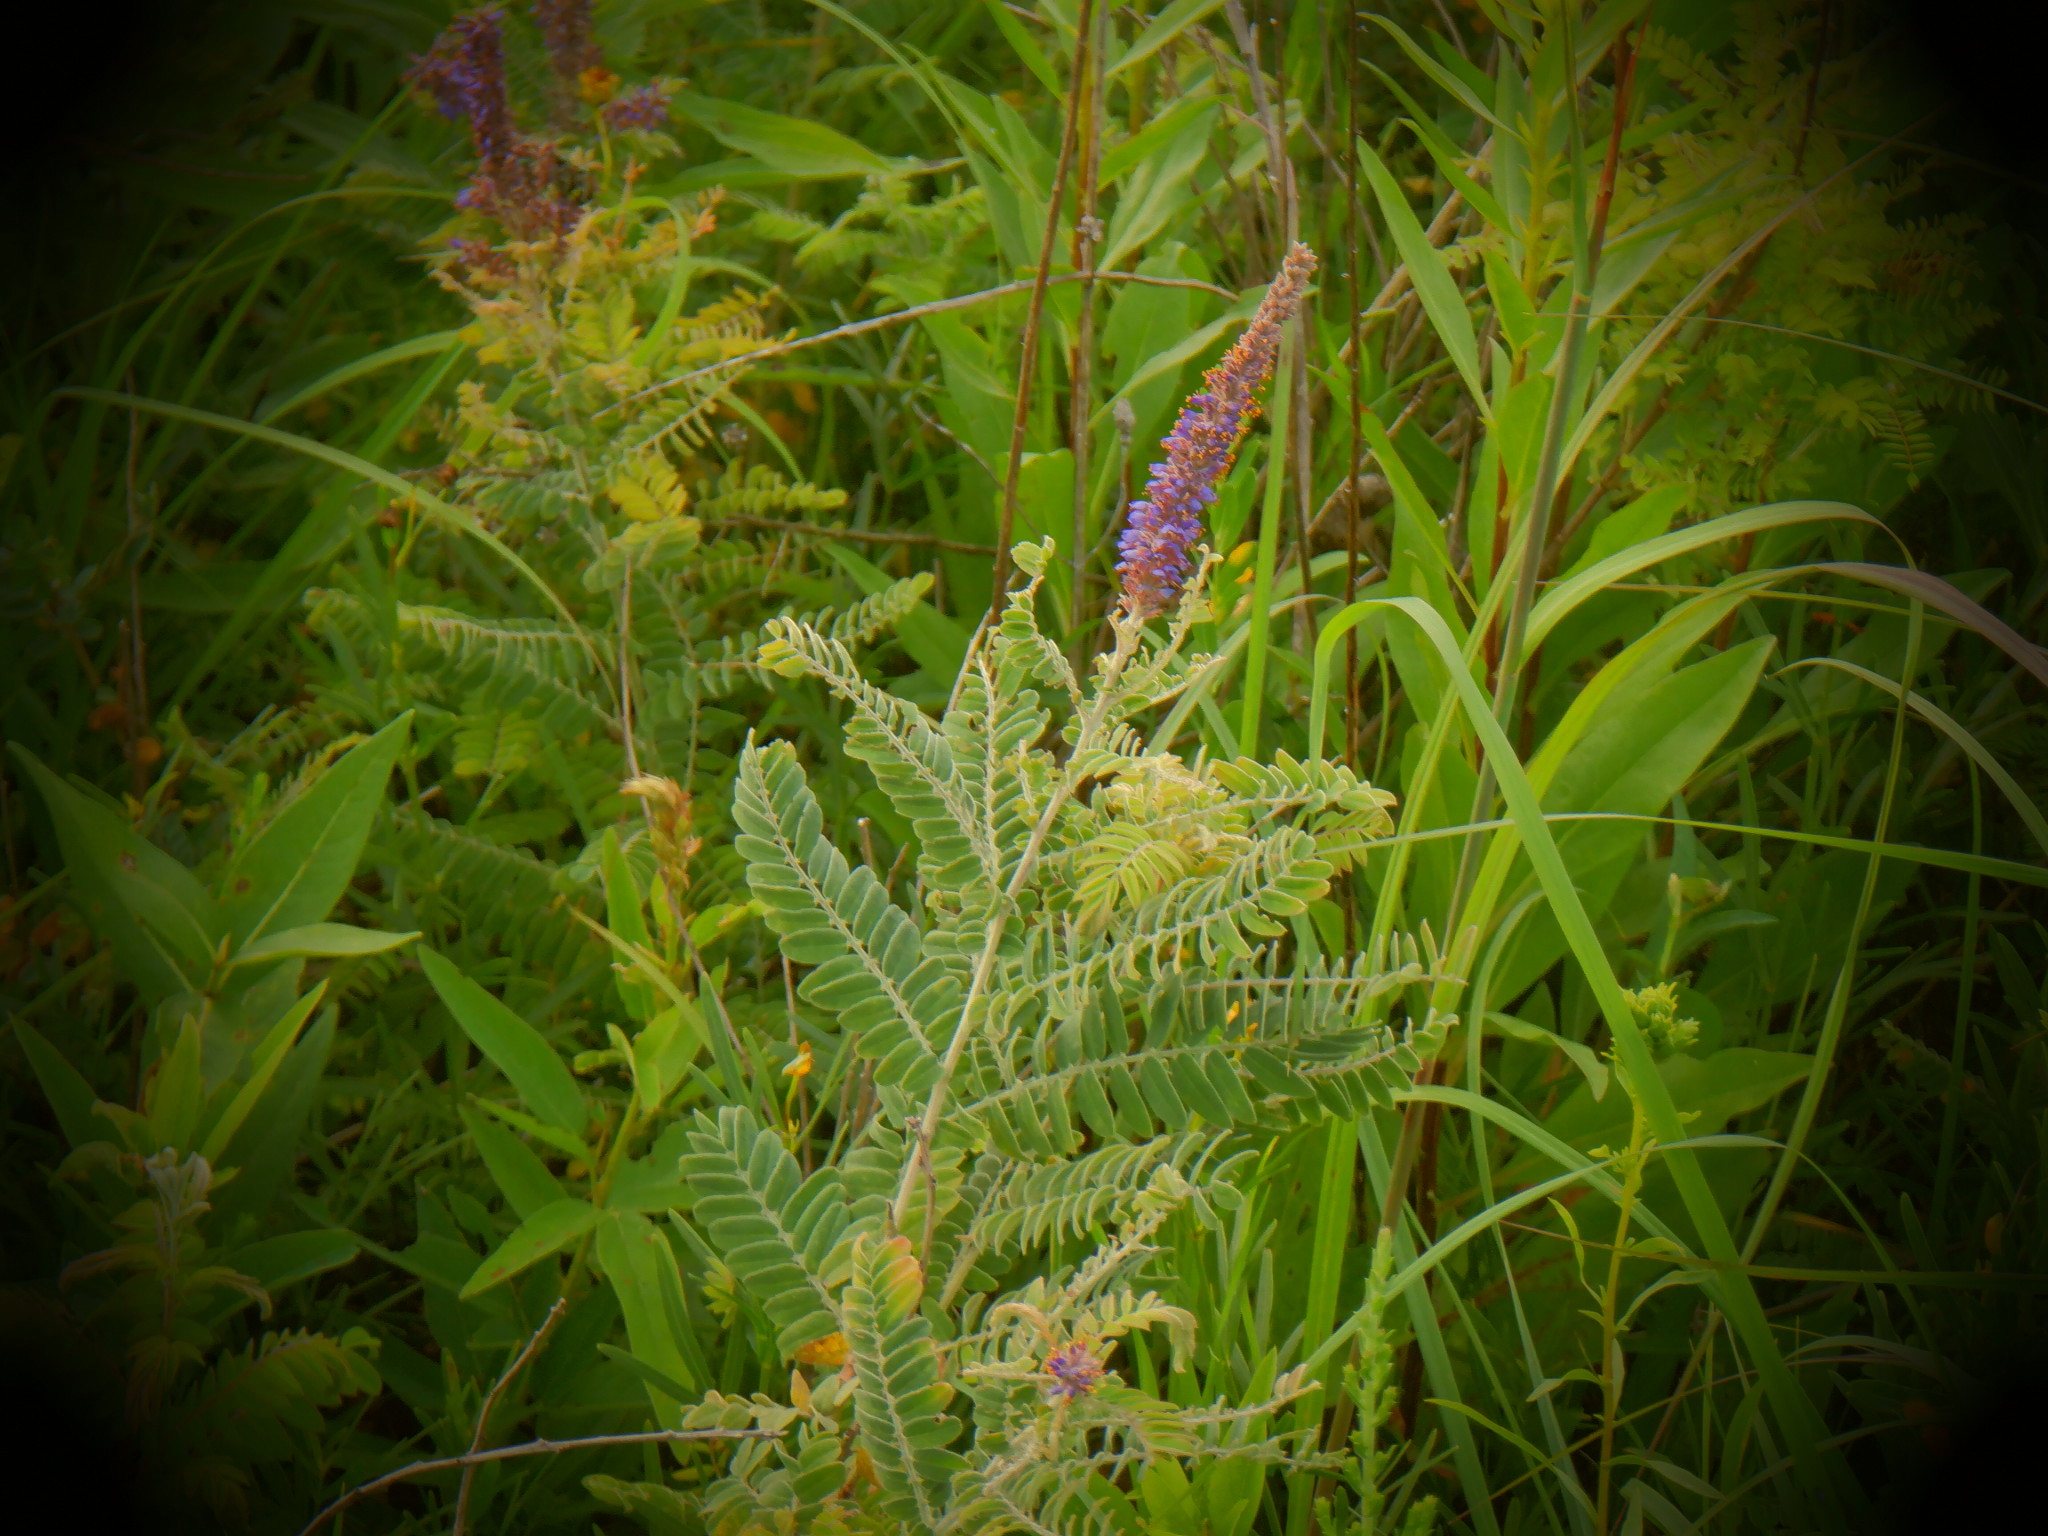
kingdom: Plantae
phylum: Tracheophyta
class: Magnoliopsida
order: Fabales
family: Fabaceae
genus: Amorpha
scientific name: Amorpha canescens
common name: Leadplant
